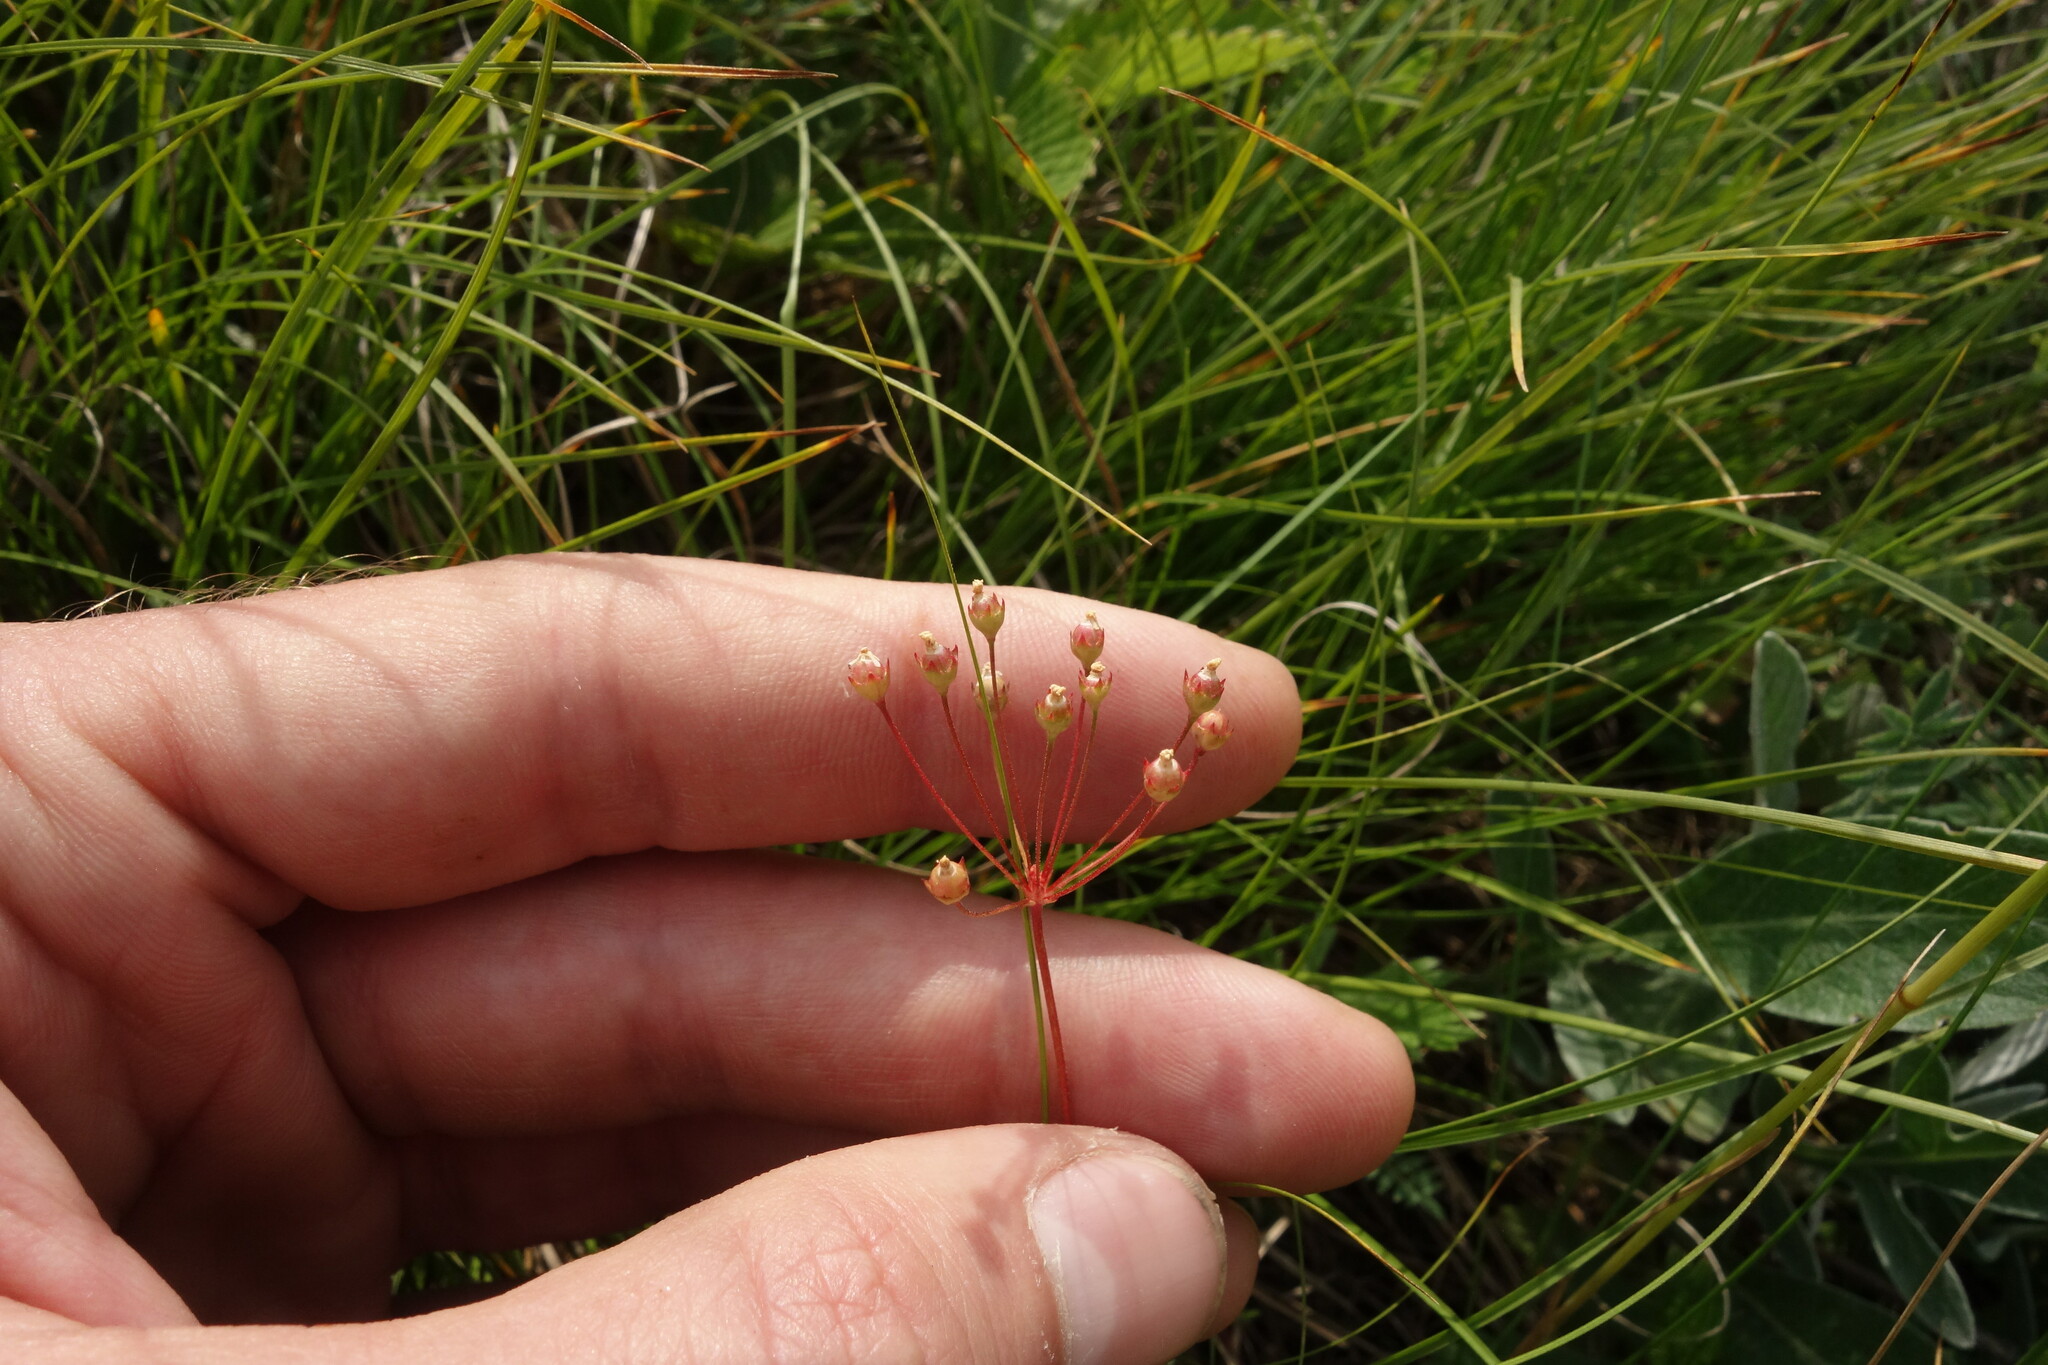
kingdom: Plantae
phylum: Tracheophyta
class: Magnoliopsida
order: Ericales
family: Primulaceae
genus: Androsace
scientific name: Androsace septentrionalis
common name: Hairy northern fairy-candelabra
